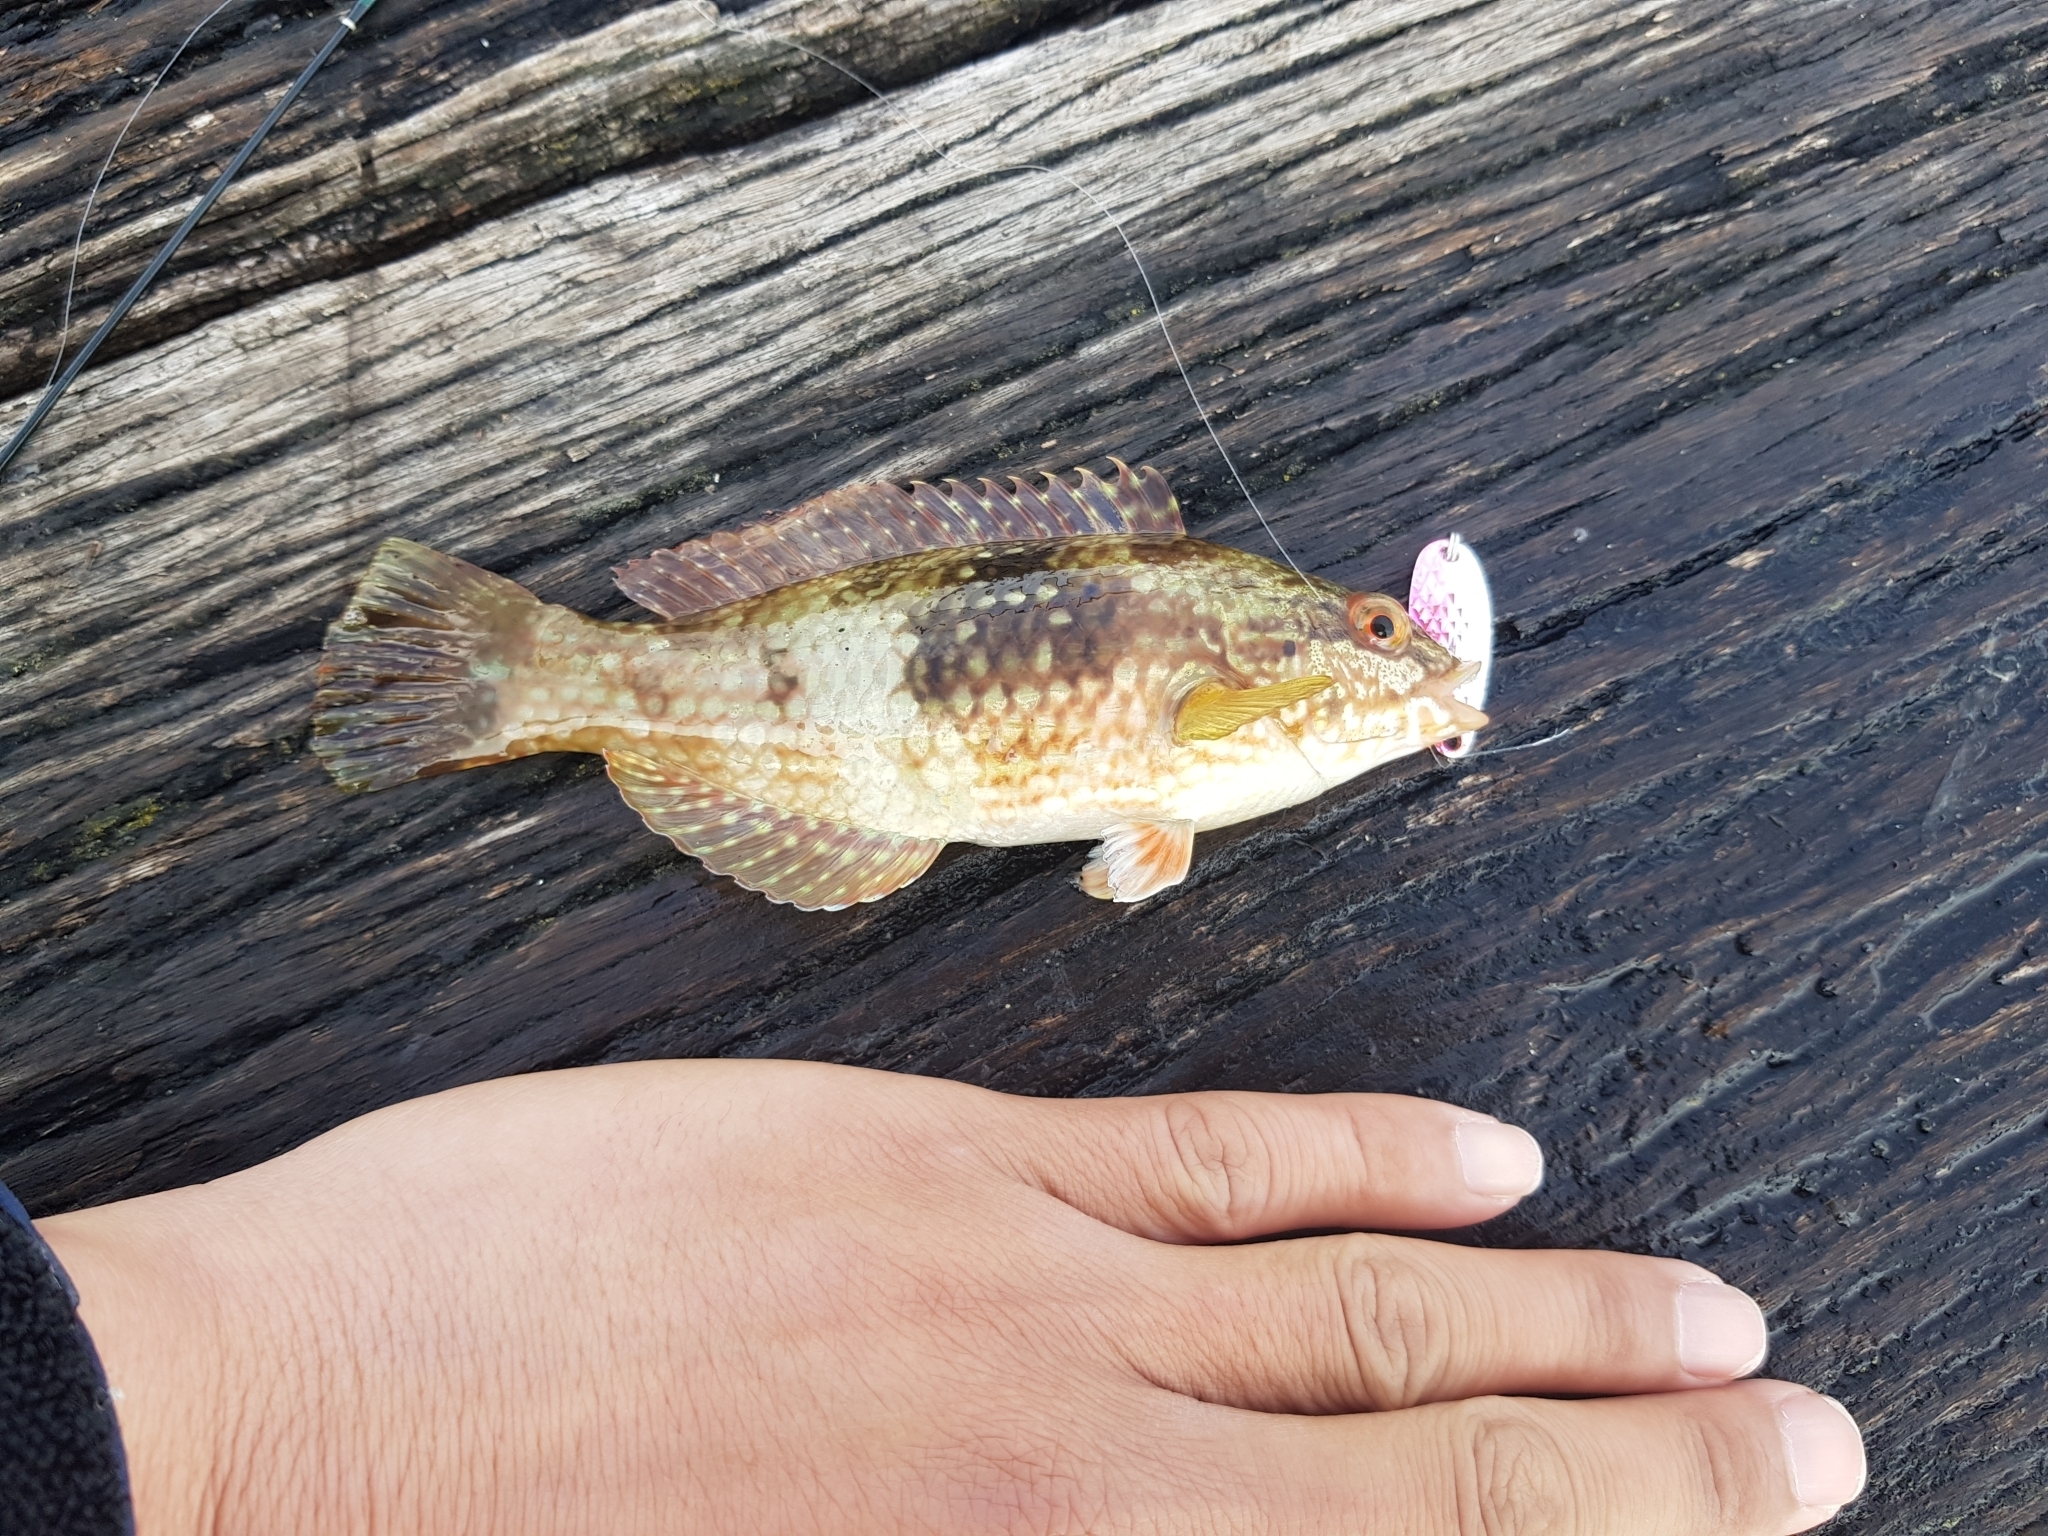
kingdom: Animalia
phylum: Chordata
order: Perciformes
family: Labridae
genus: Notolabrus
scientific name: Notolabrus tetricus
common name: Blue-throated parrotfish
